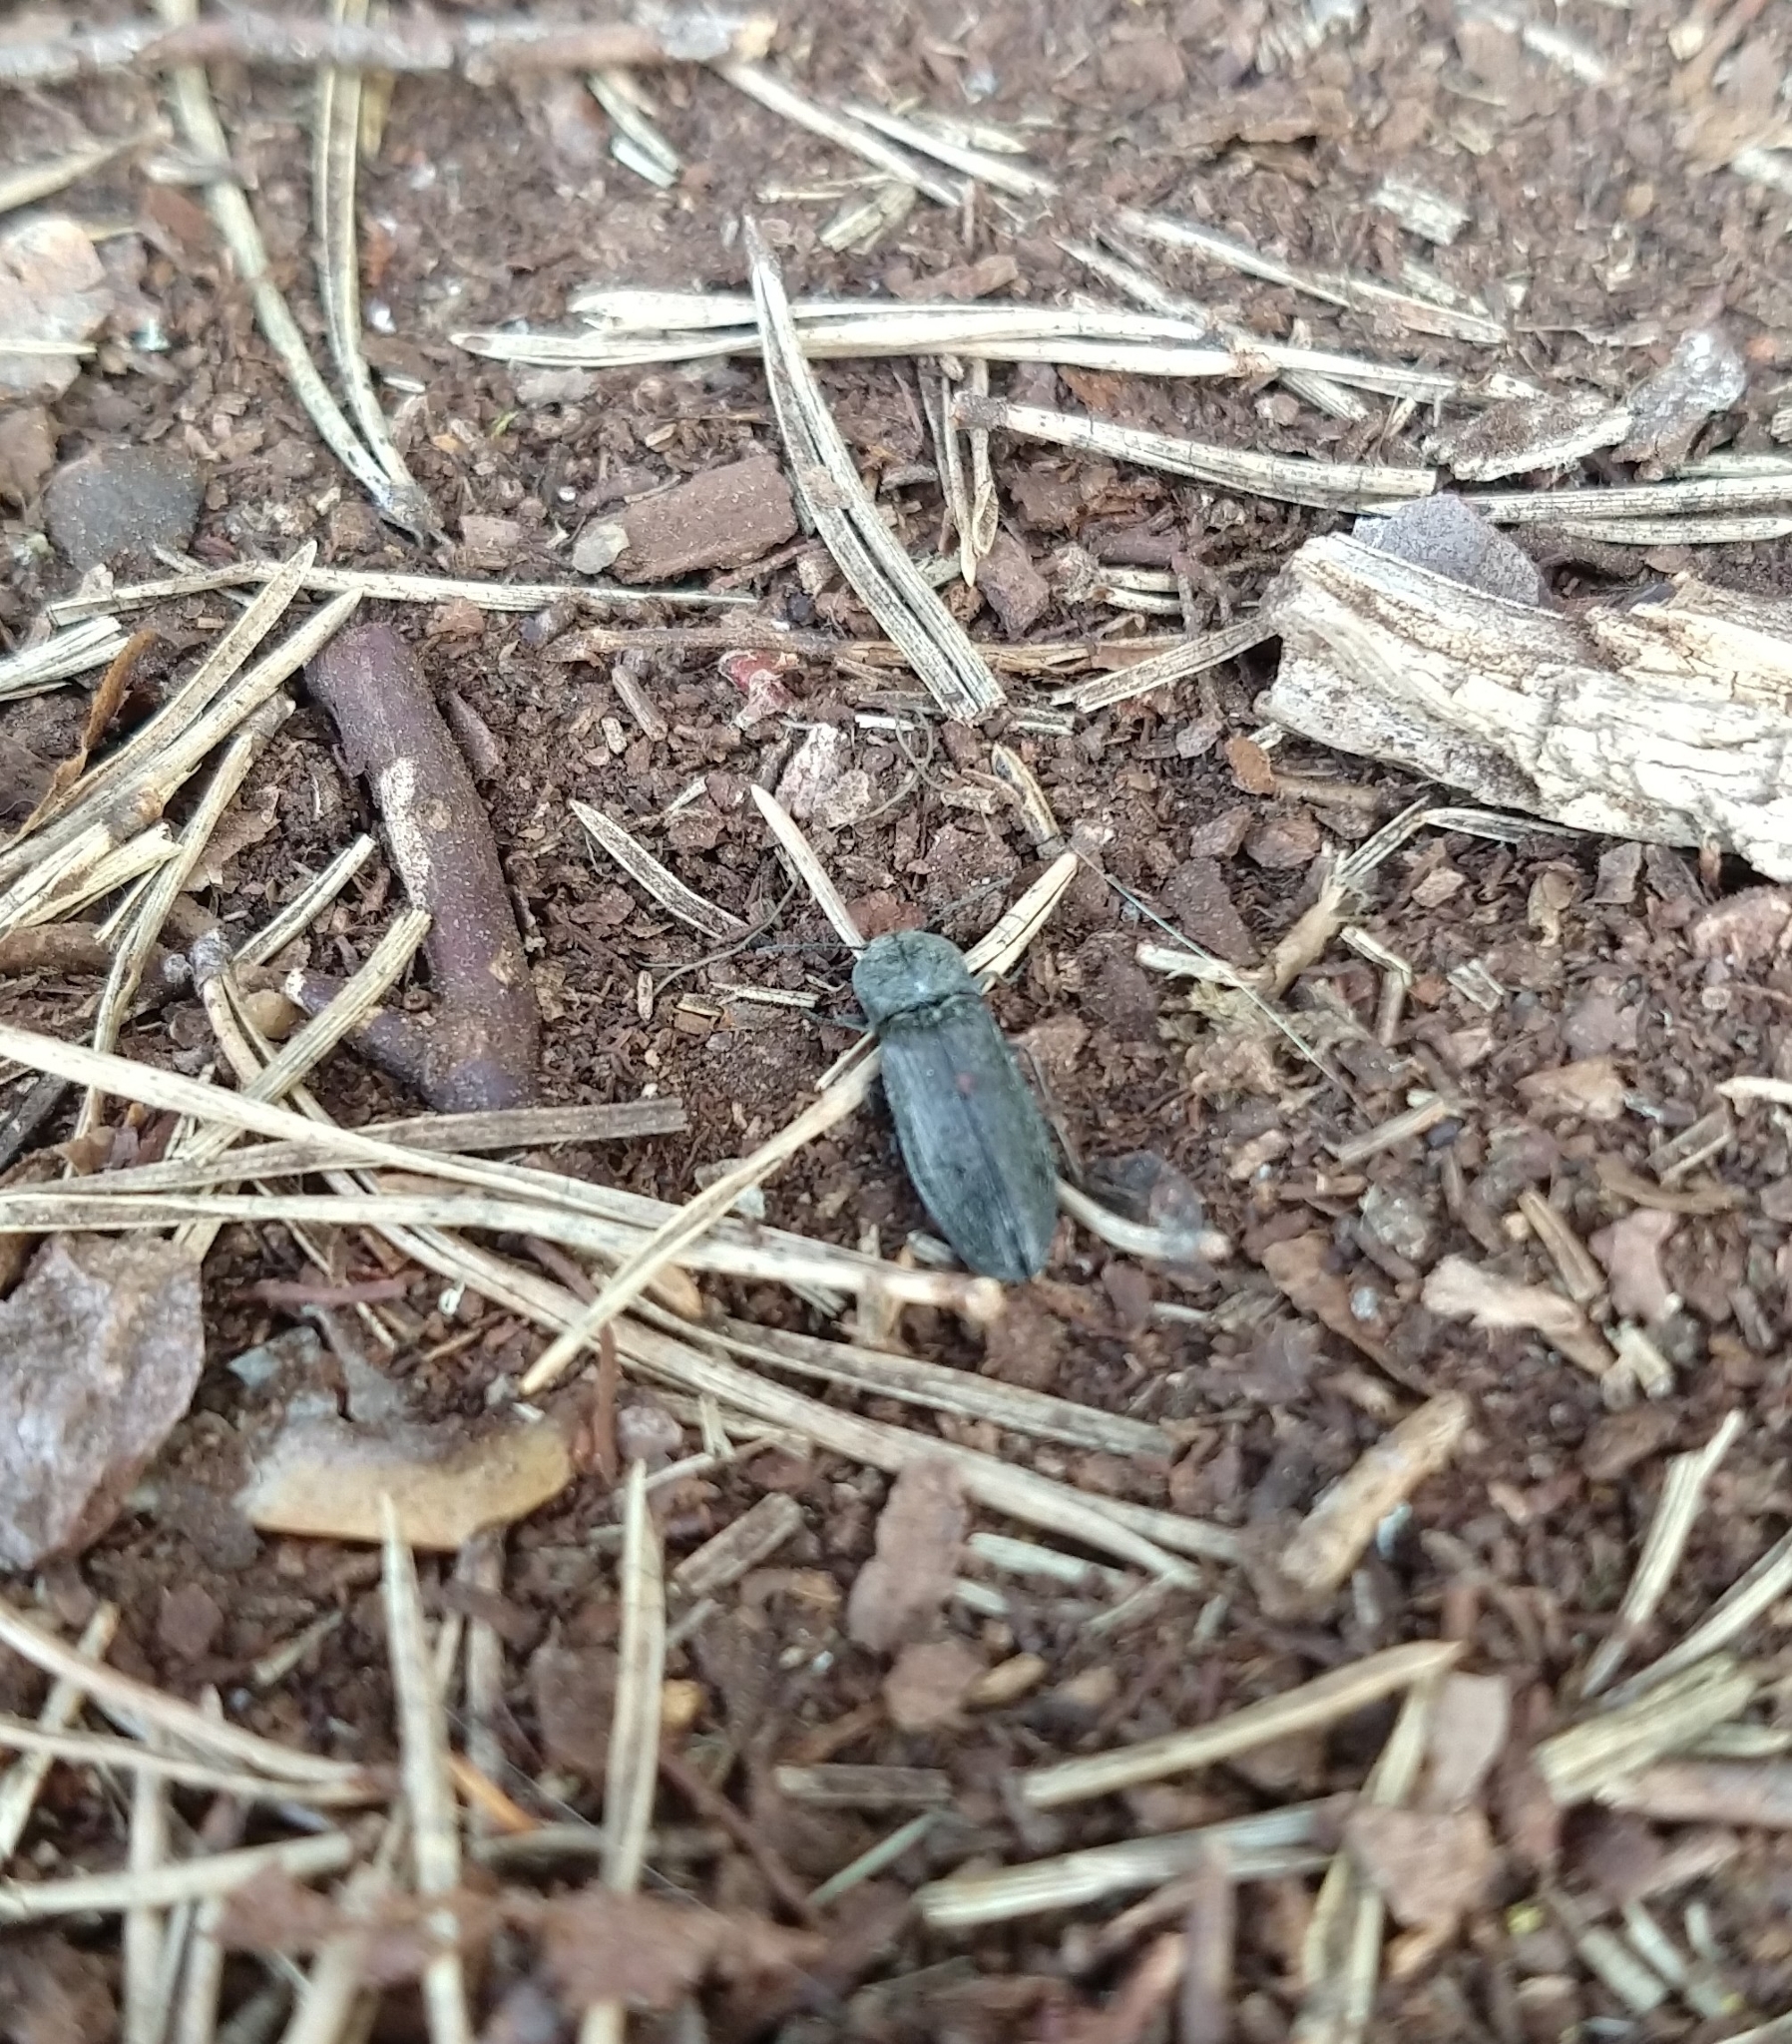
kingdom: Animalia
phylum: Arthropoda
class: Insecta
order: Coleoptera
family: Elateridae
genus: Paraphotistus
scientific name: Paraphotistus impressus
